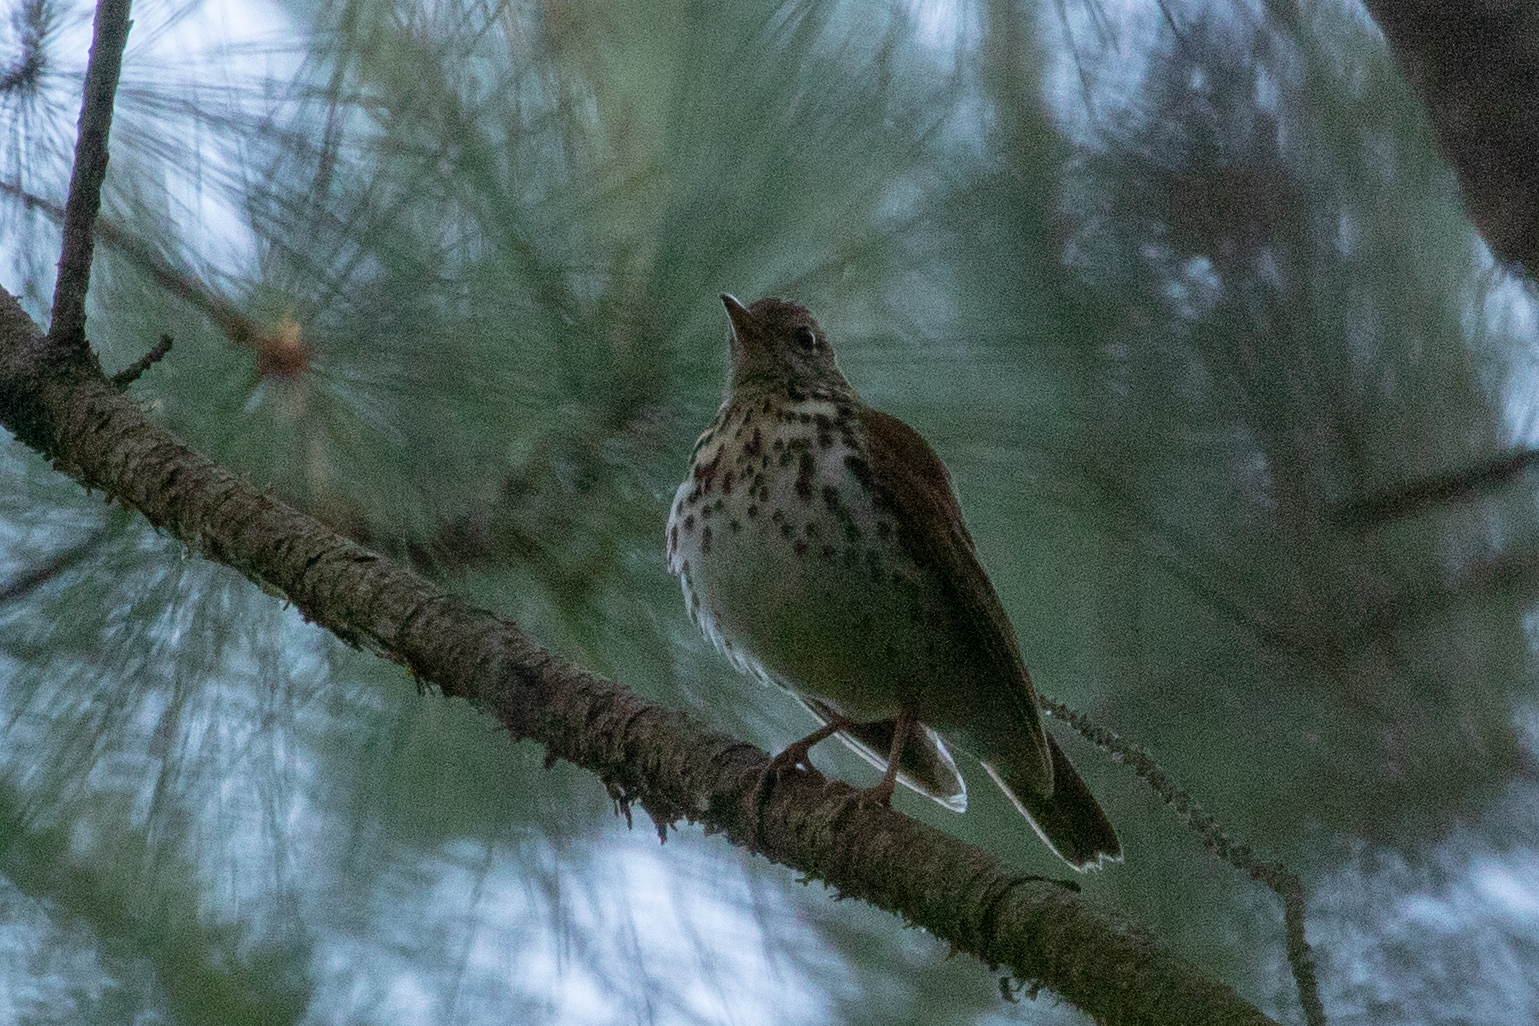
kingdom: Animalia
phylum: Chordata
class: Aves
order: Passeriformes
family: Turdidae
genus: Hylocichla
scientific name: Hylocichla mustelina
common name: Wood thrush
